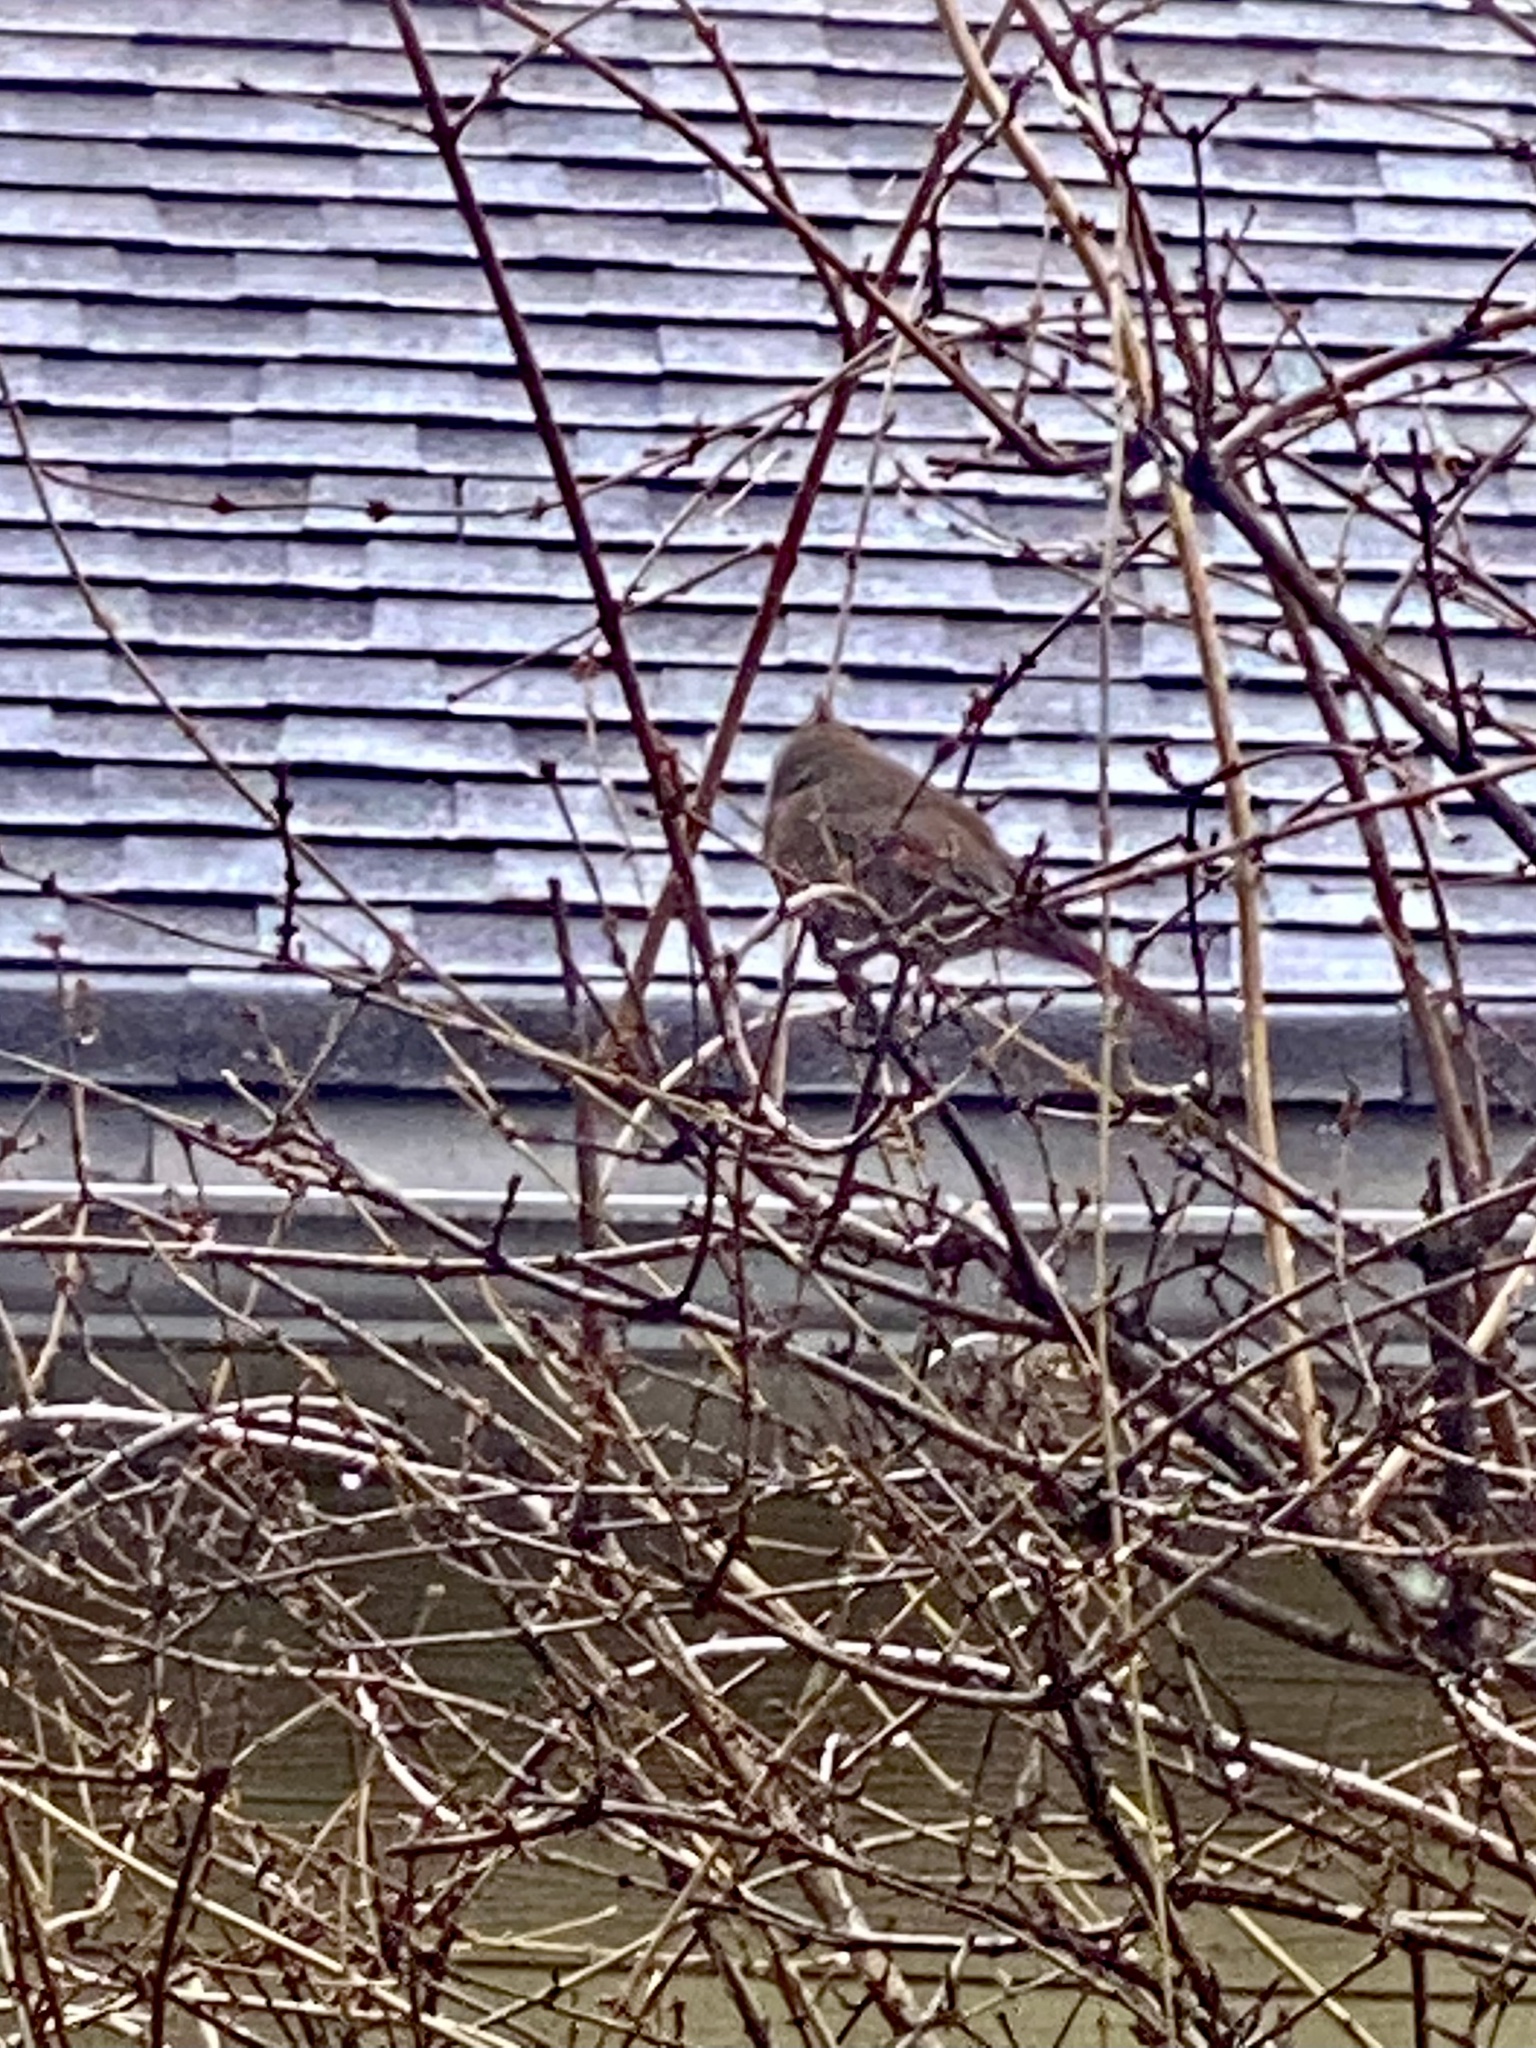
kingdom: Animalia
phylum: Chordata
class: Aves
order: Passeriformes
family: Cardinalidae
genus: Cardinalis
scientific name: Cardinalis cardinalis
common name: Northern cardinal
